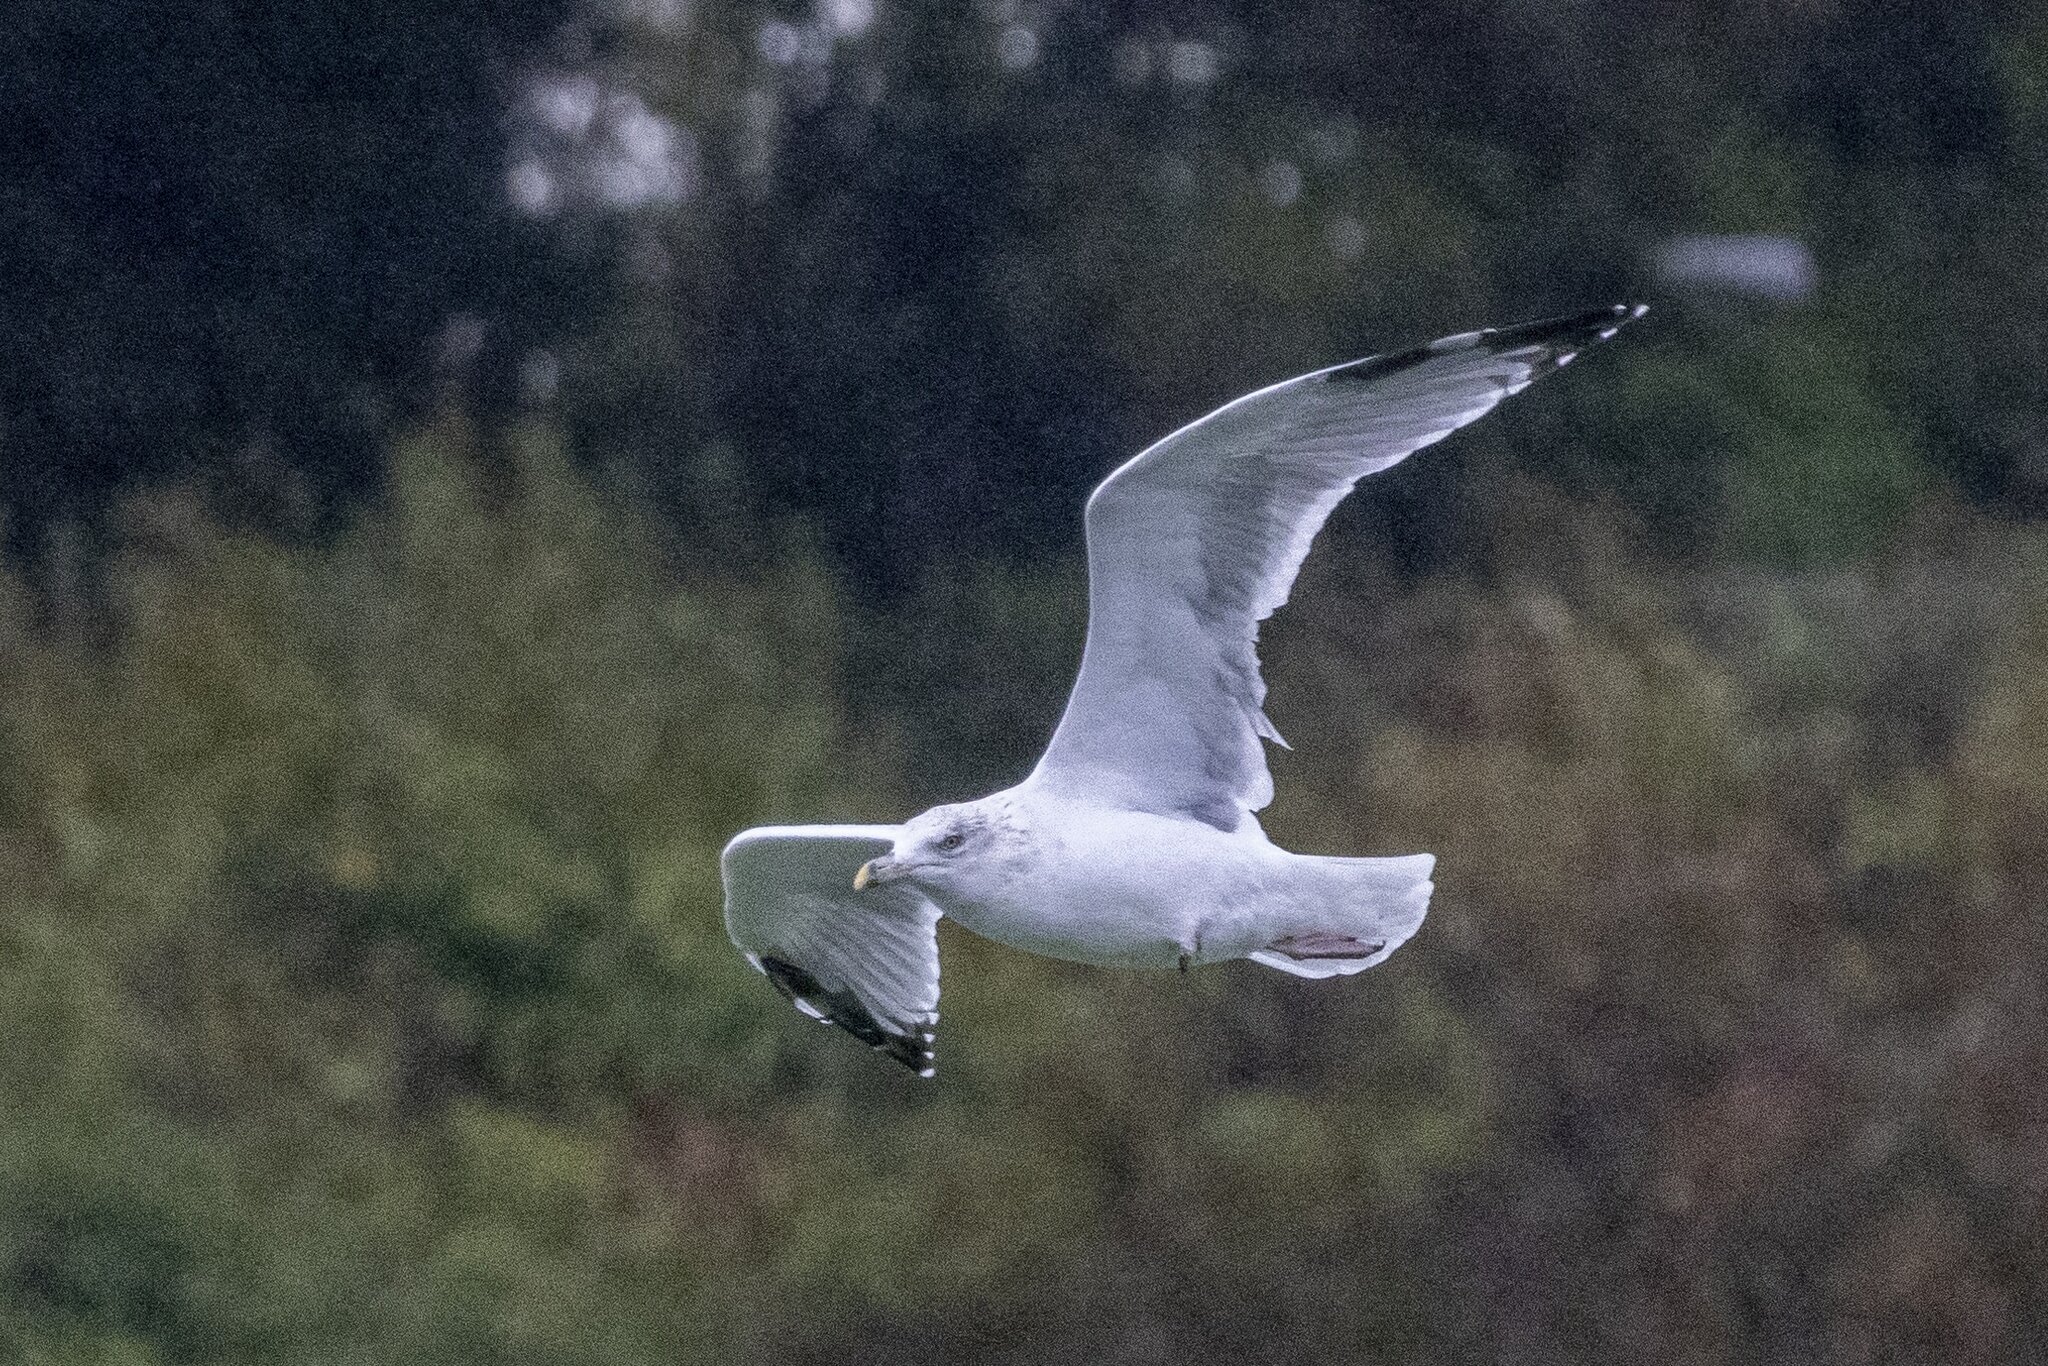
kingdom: Animalia
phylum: Chordata
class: Aves
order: Charadriiformes
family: Laridae
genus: Larus
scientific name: Larus argentatus
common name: Herring gull
